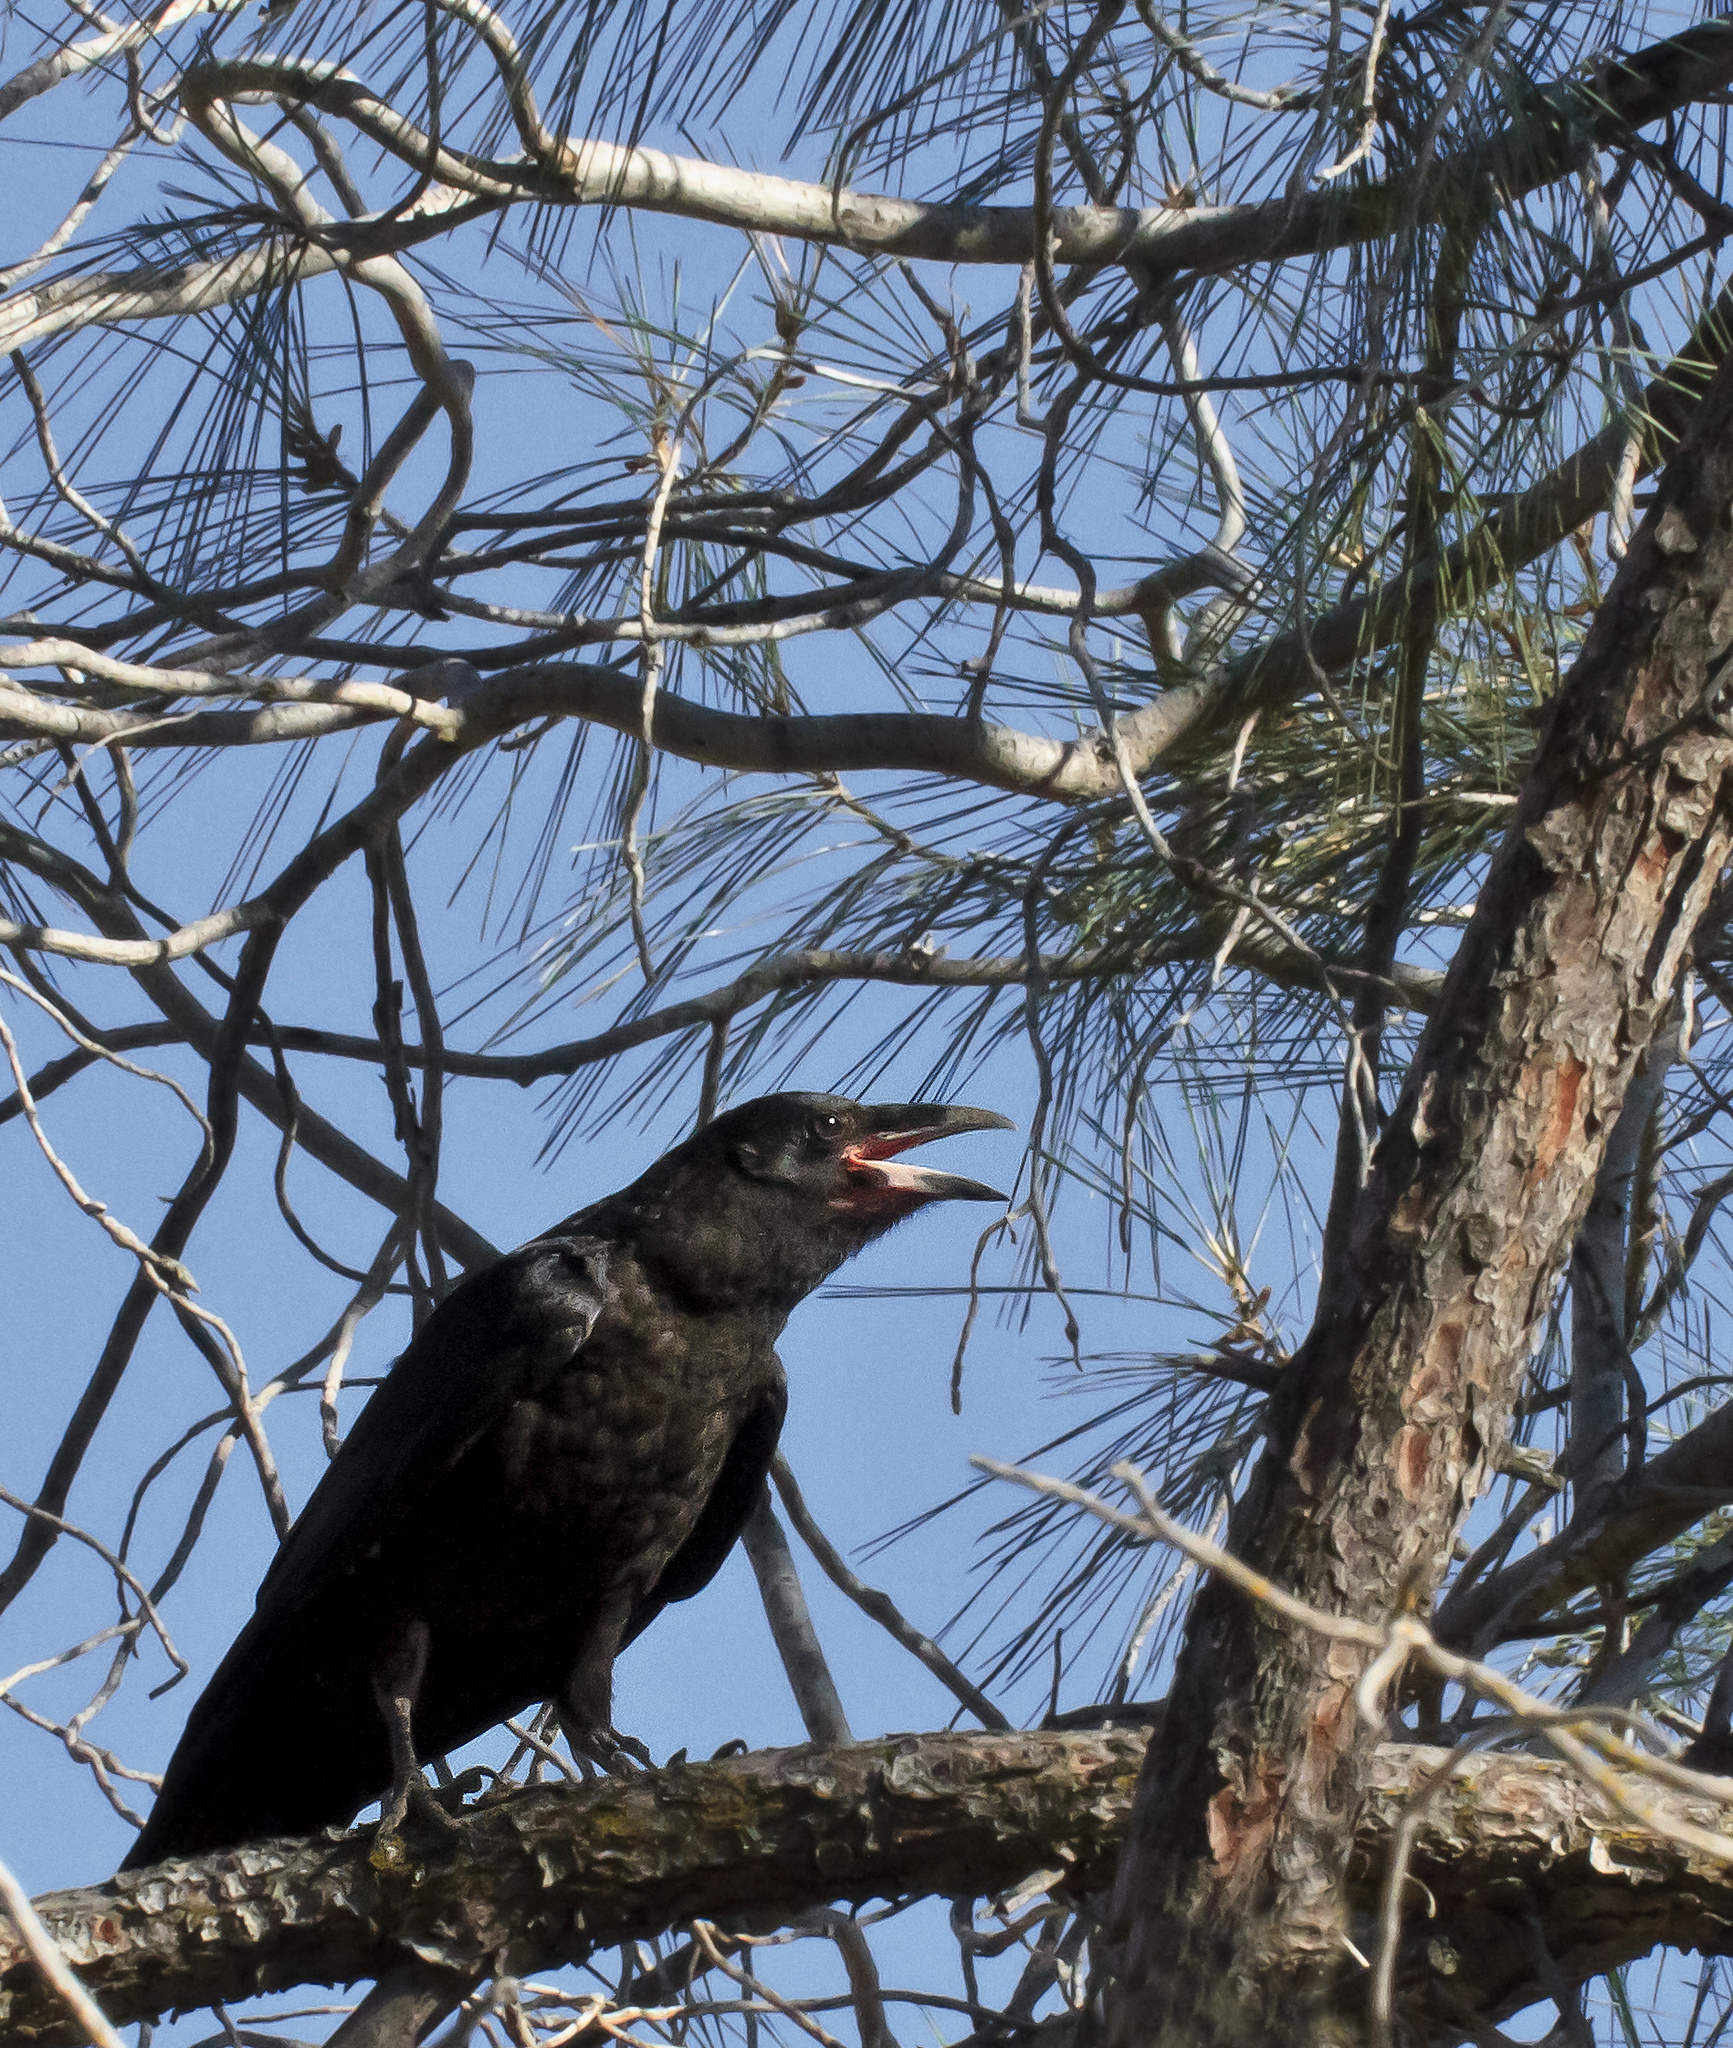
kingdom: Animalia
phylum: Chordata
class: Aves
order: Passeriformes
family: Corvidae
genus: Corvus
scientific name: Corvus corax
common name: Common raven
